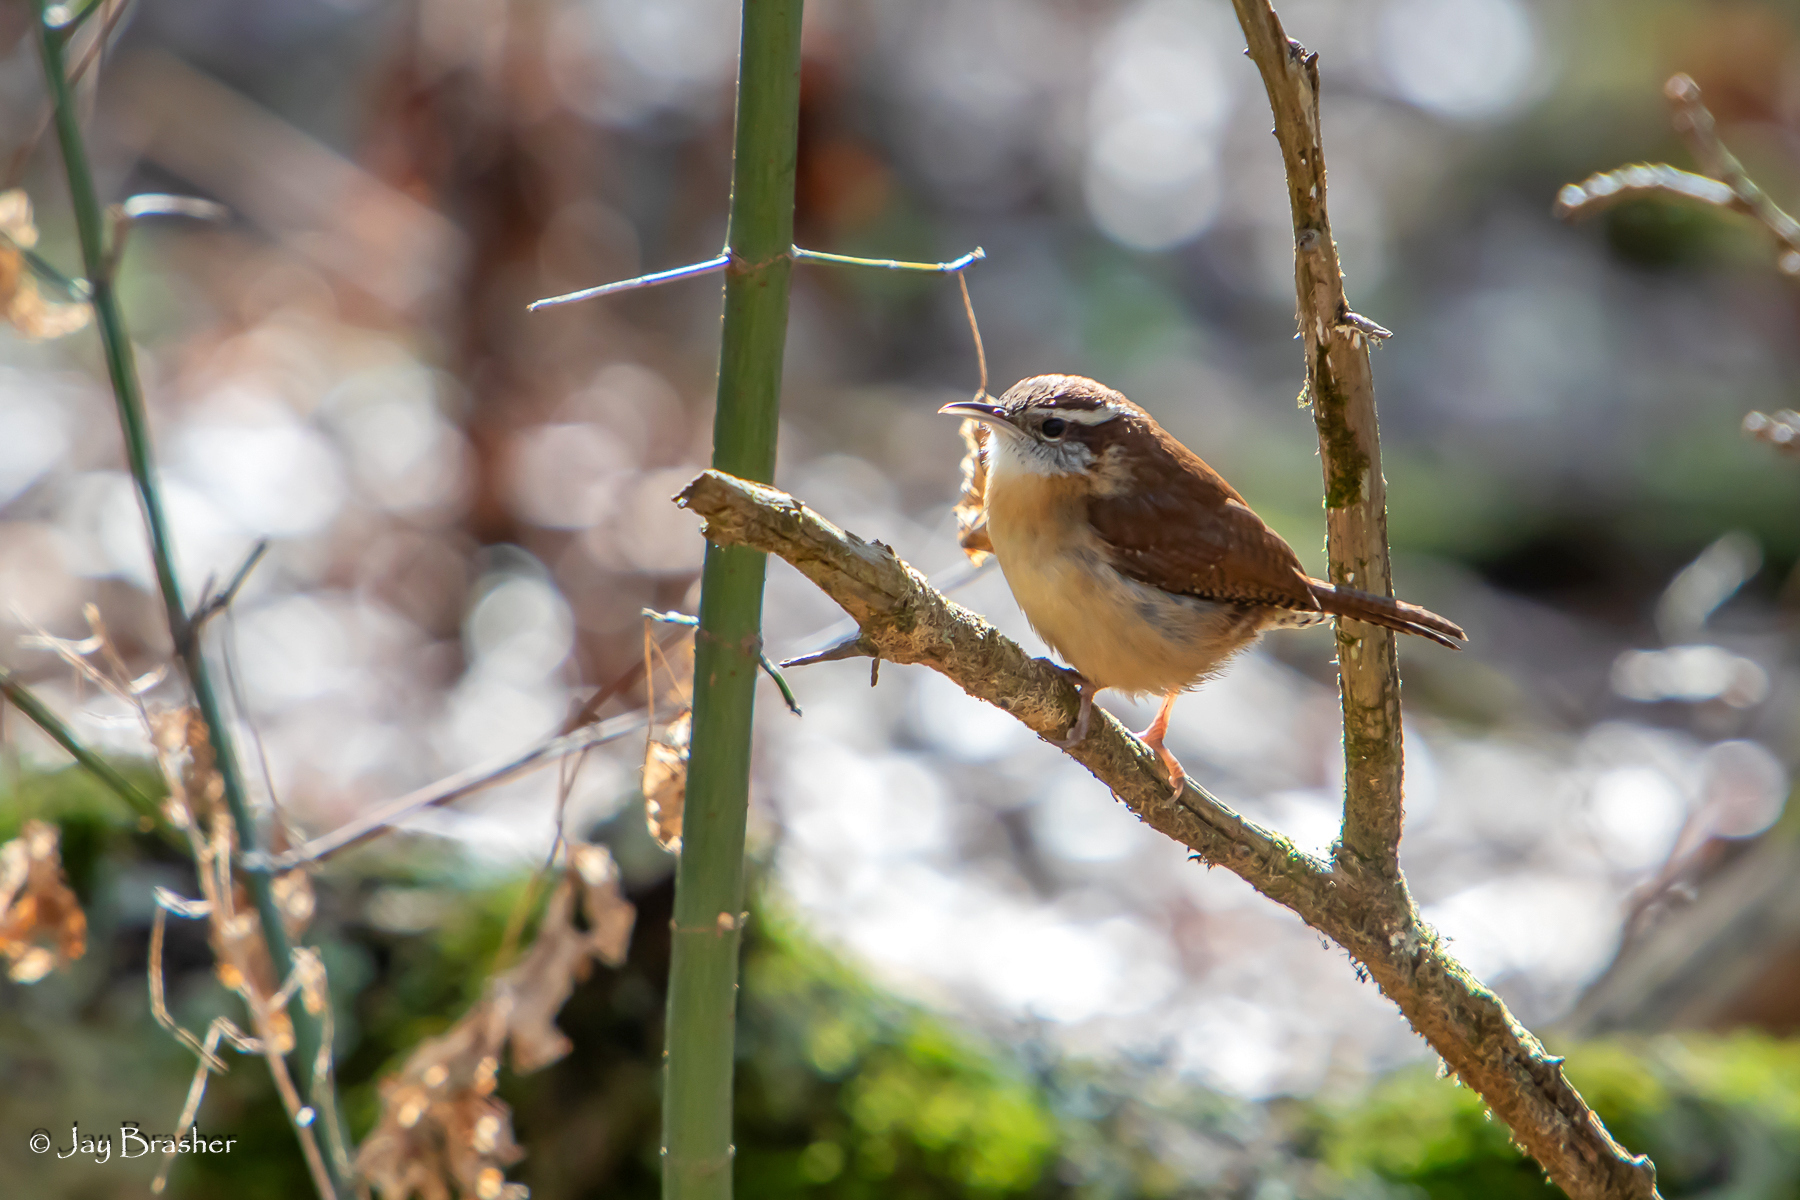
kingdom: Animalia
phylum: Chordata
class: Aves
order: Passeriformes
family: Troglodytidae
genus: Thryothorus
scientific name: Thryothorus ludovicianus
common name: Carolina wren
